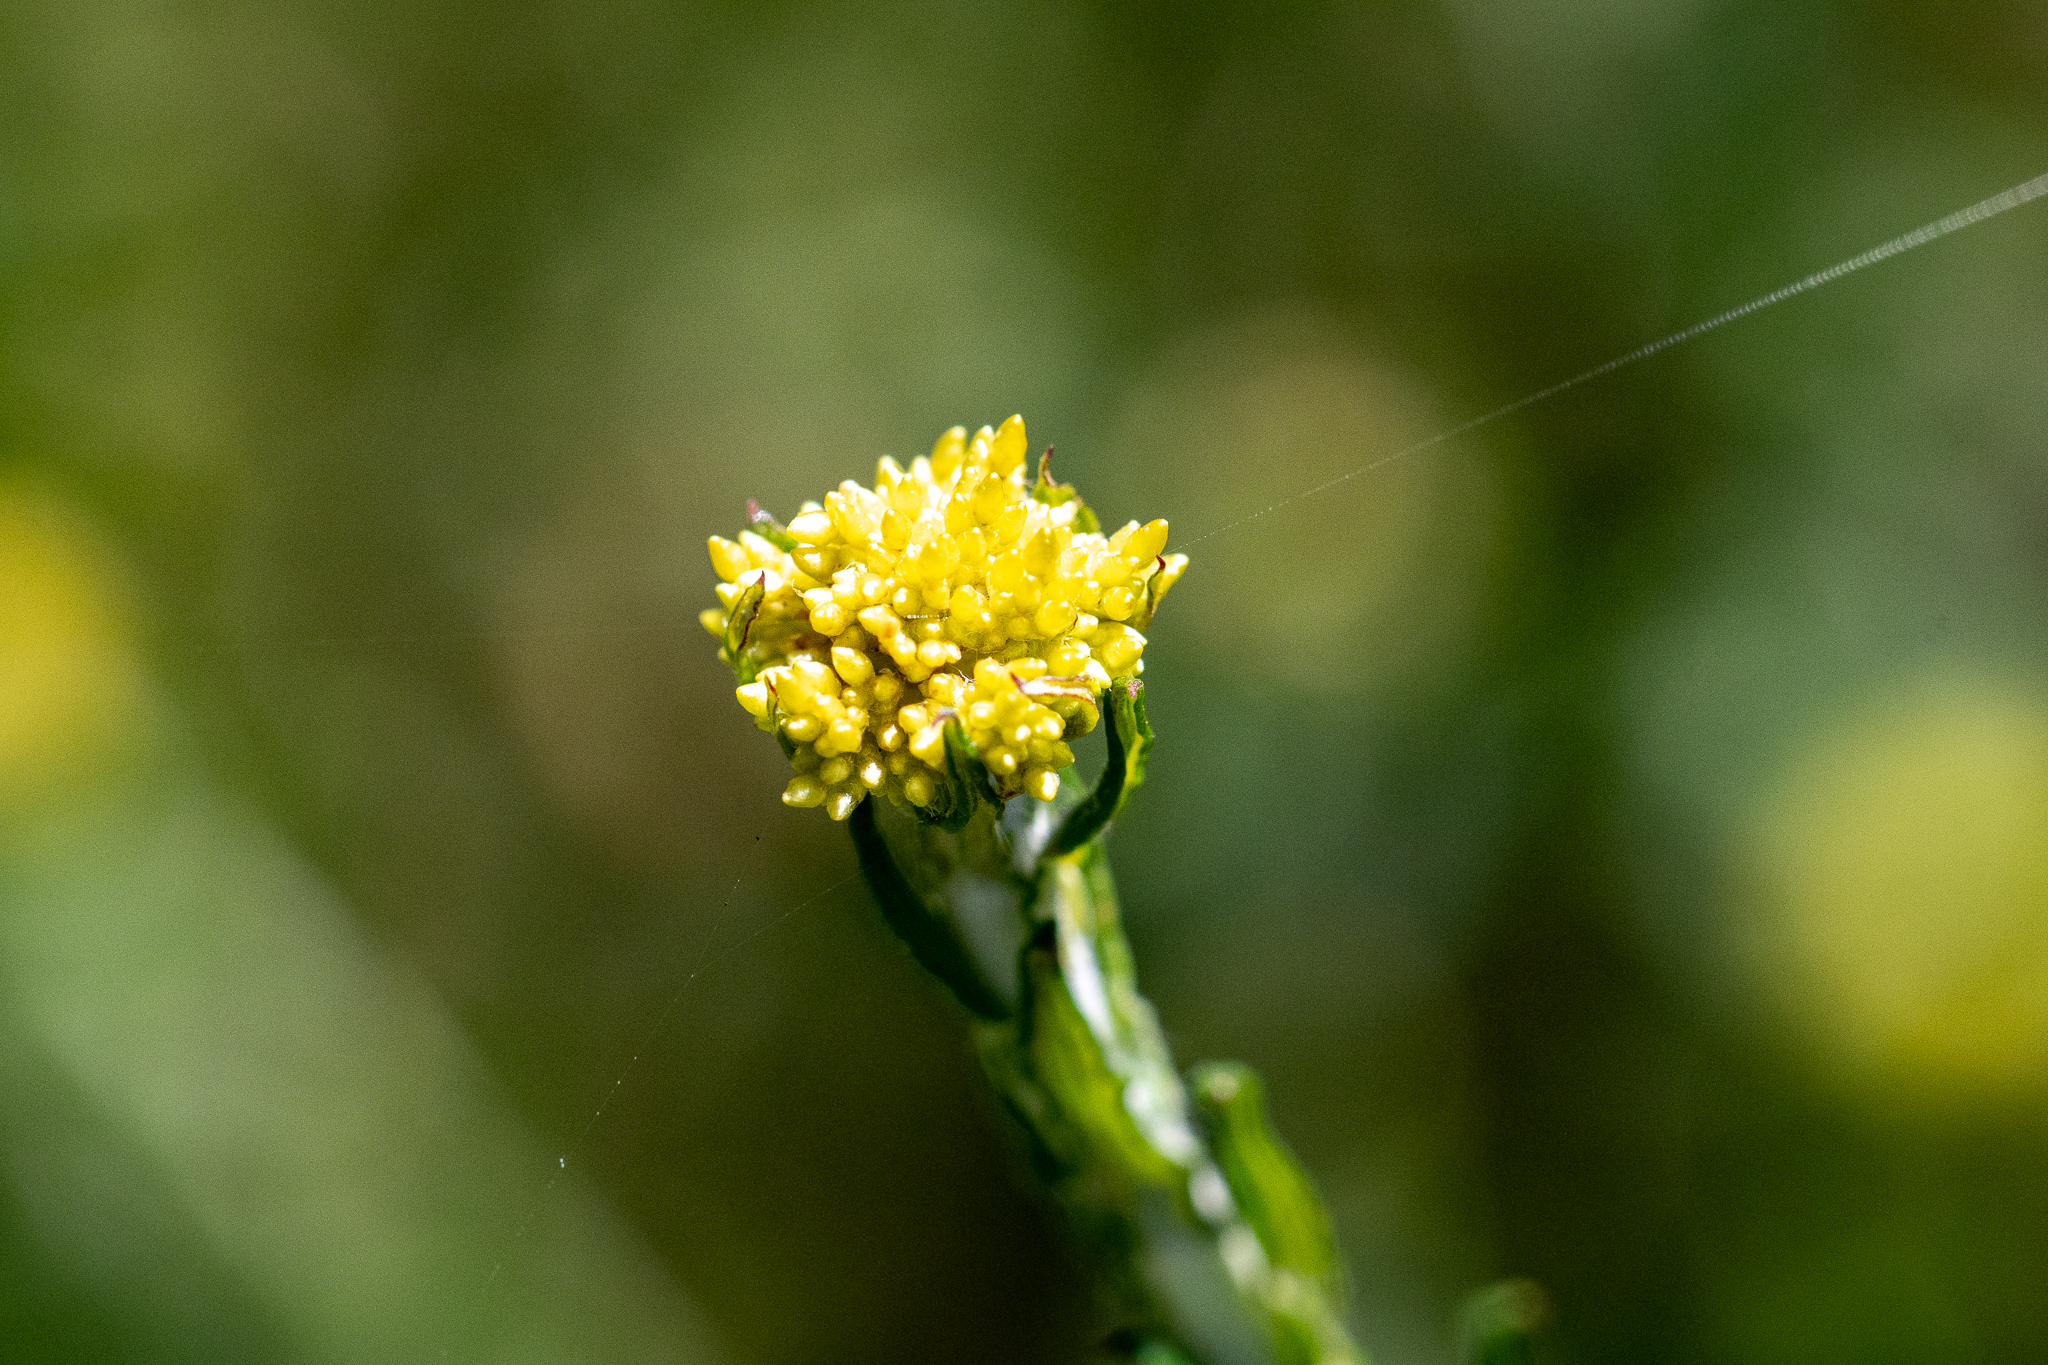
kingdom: Plantae
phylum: Tracheophyta
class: Magnoliopsida
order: Asterales
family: Asteraceae
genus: Helichrysum
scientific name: Helichrysum cymosum
